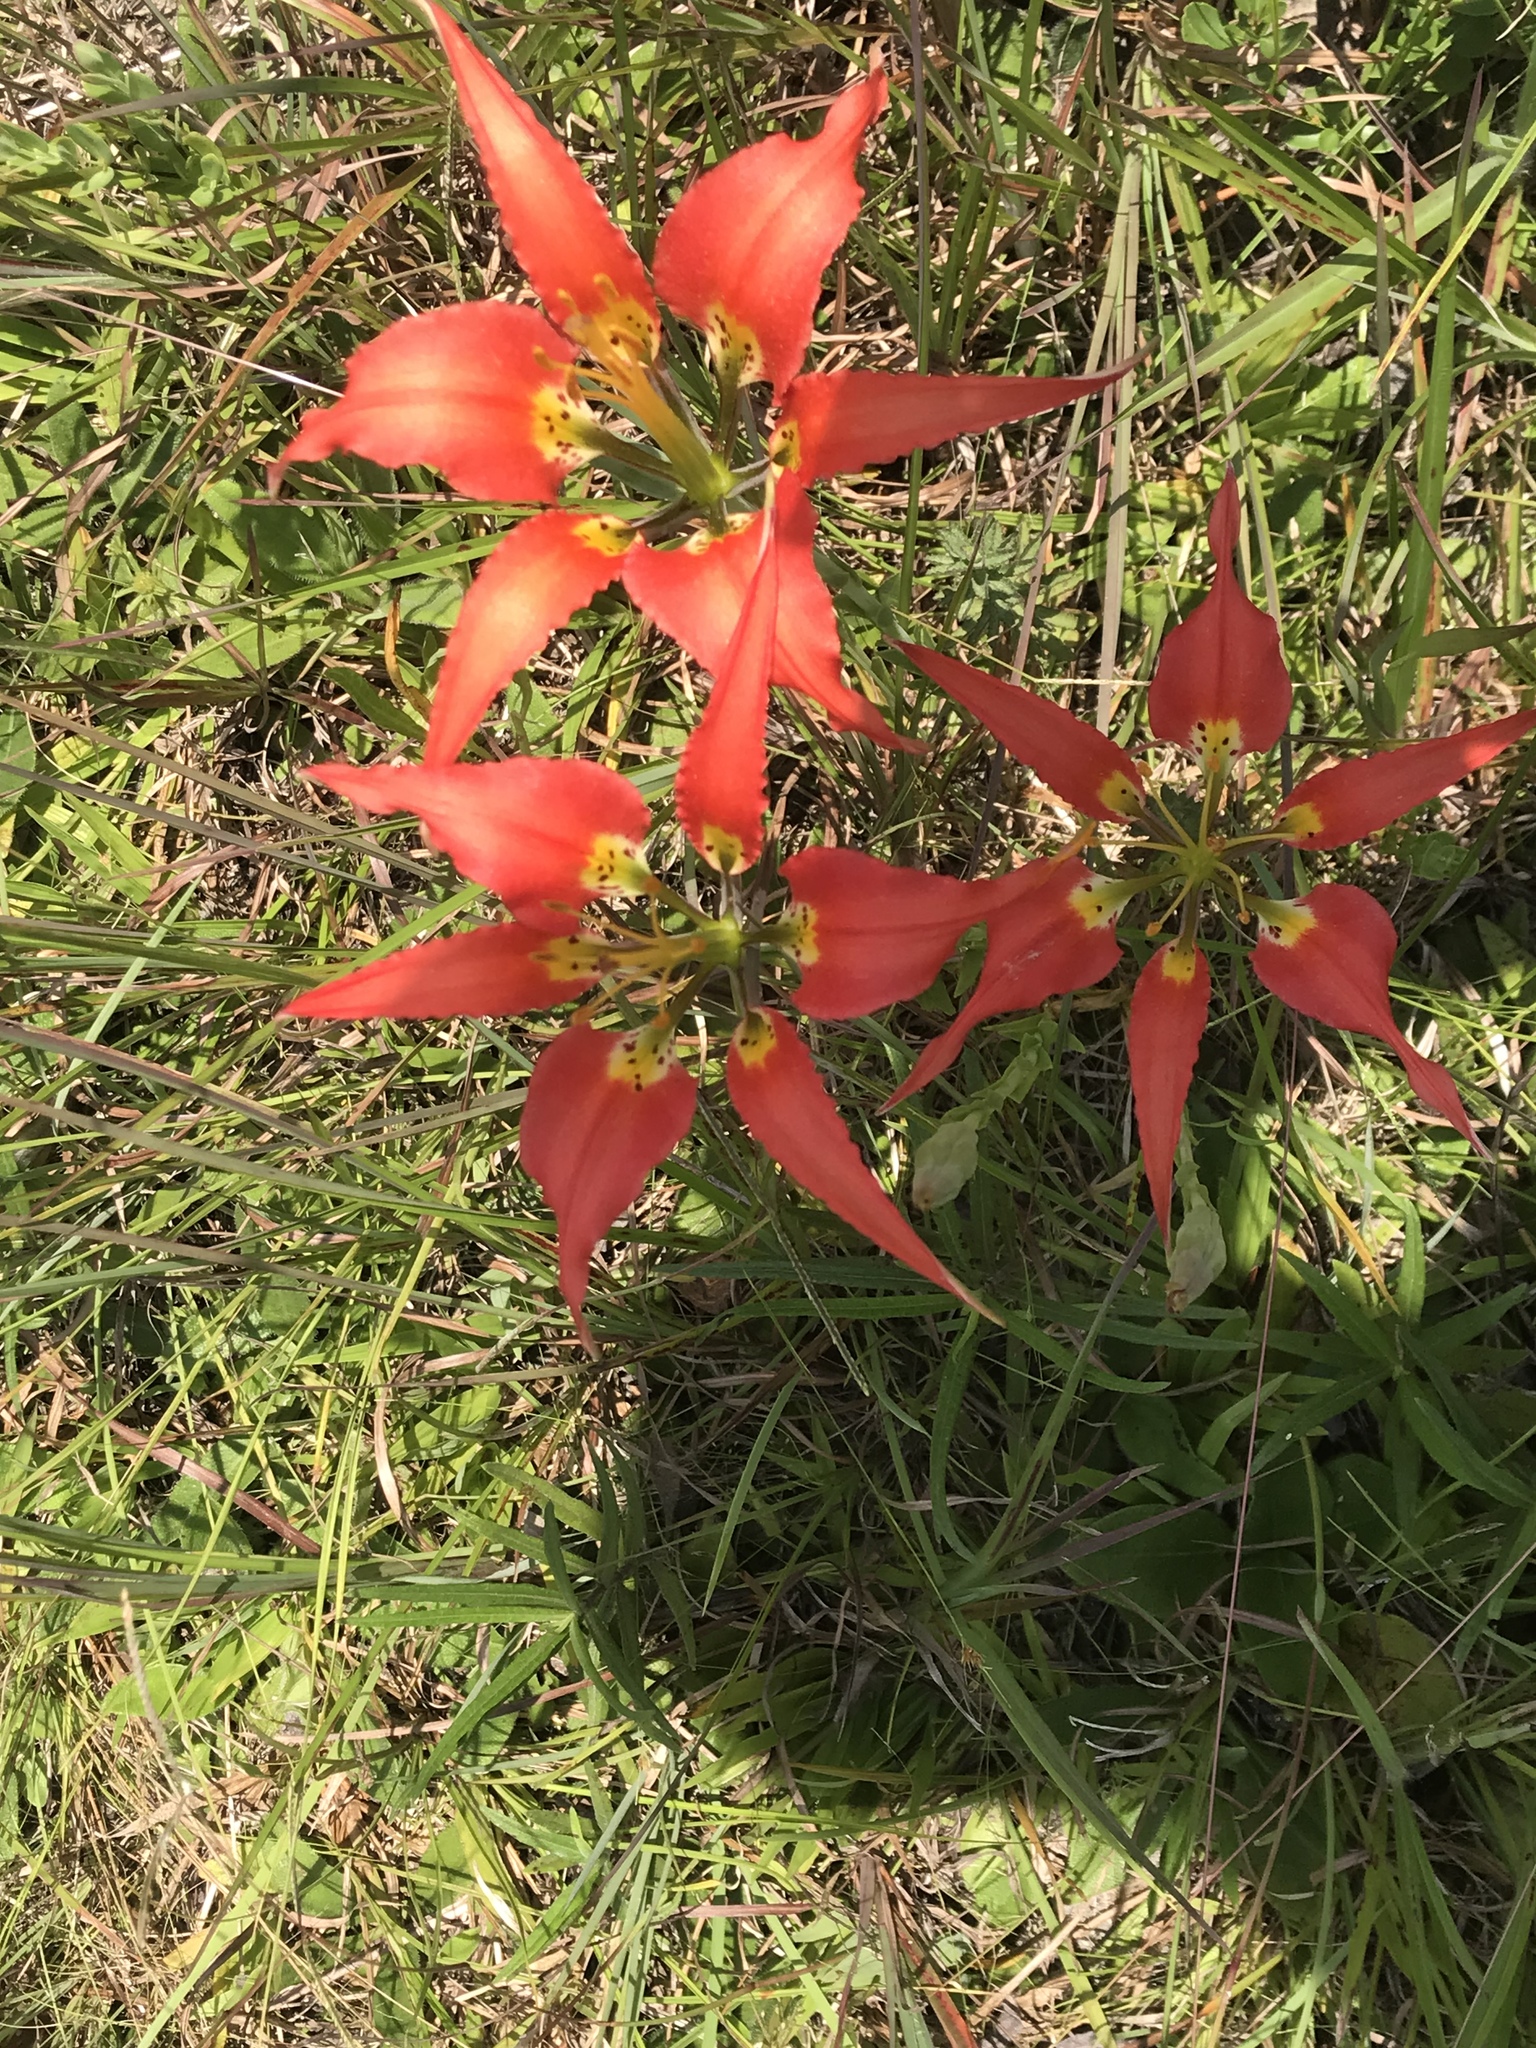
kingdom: Plantae
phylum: Tracheophyta
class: Liliopsida
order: Liliales
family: Liliaceae
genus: Lilium
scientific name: Lilium catesbaei
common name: Catesby's lily
